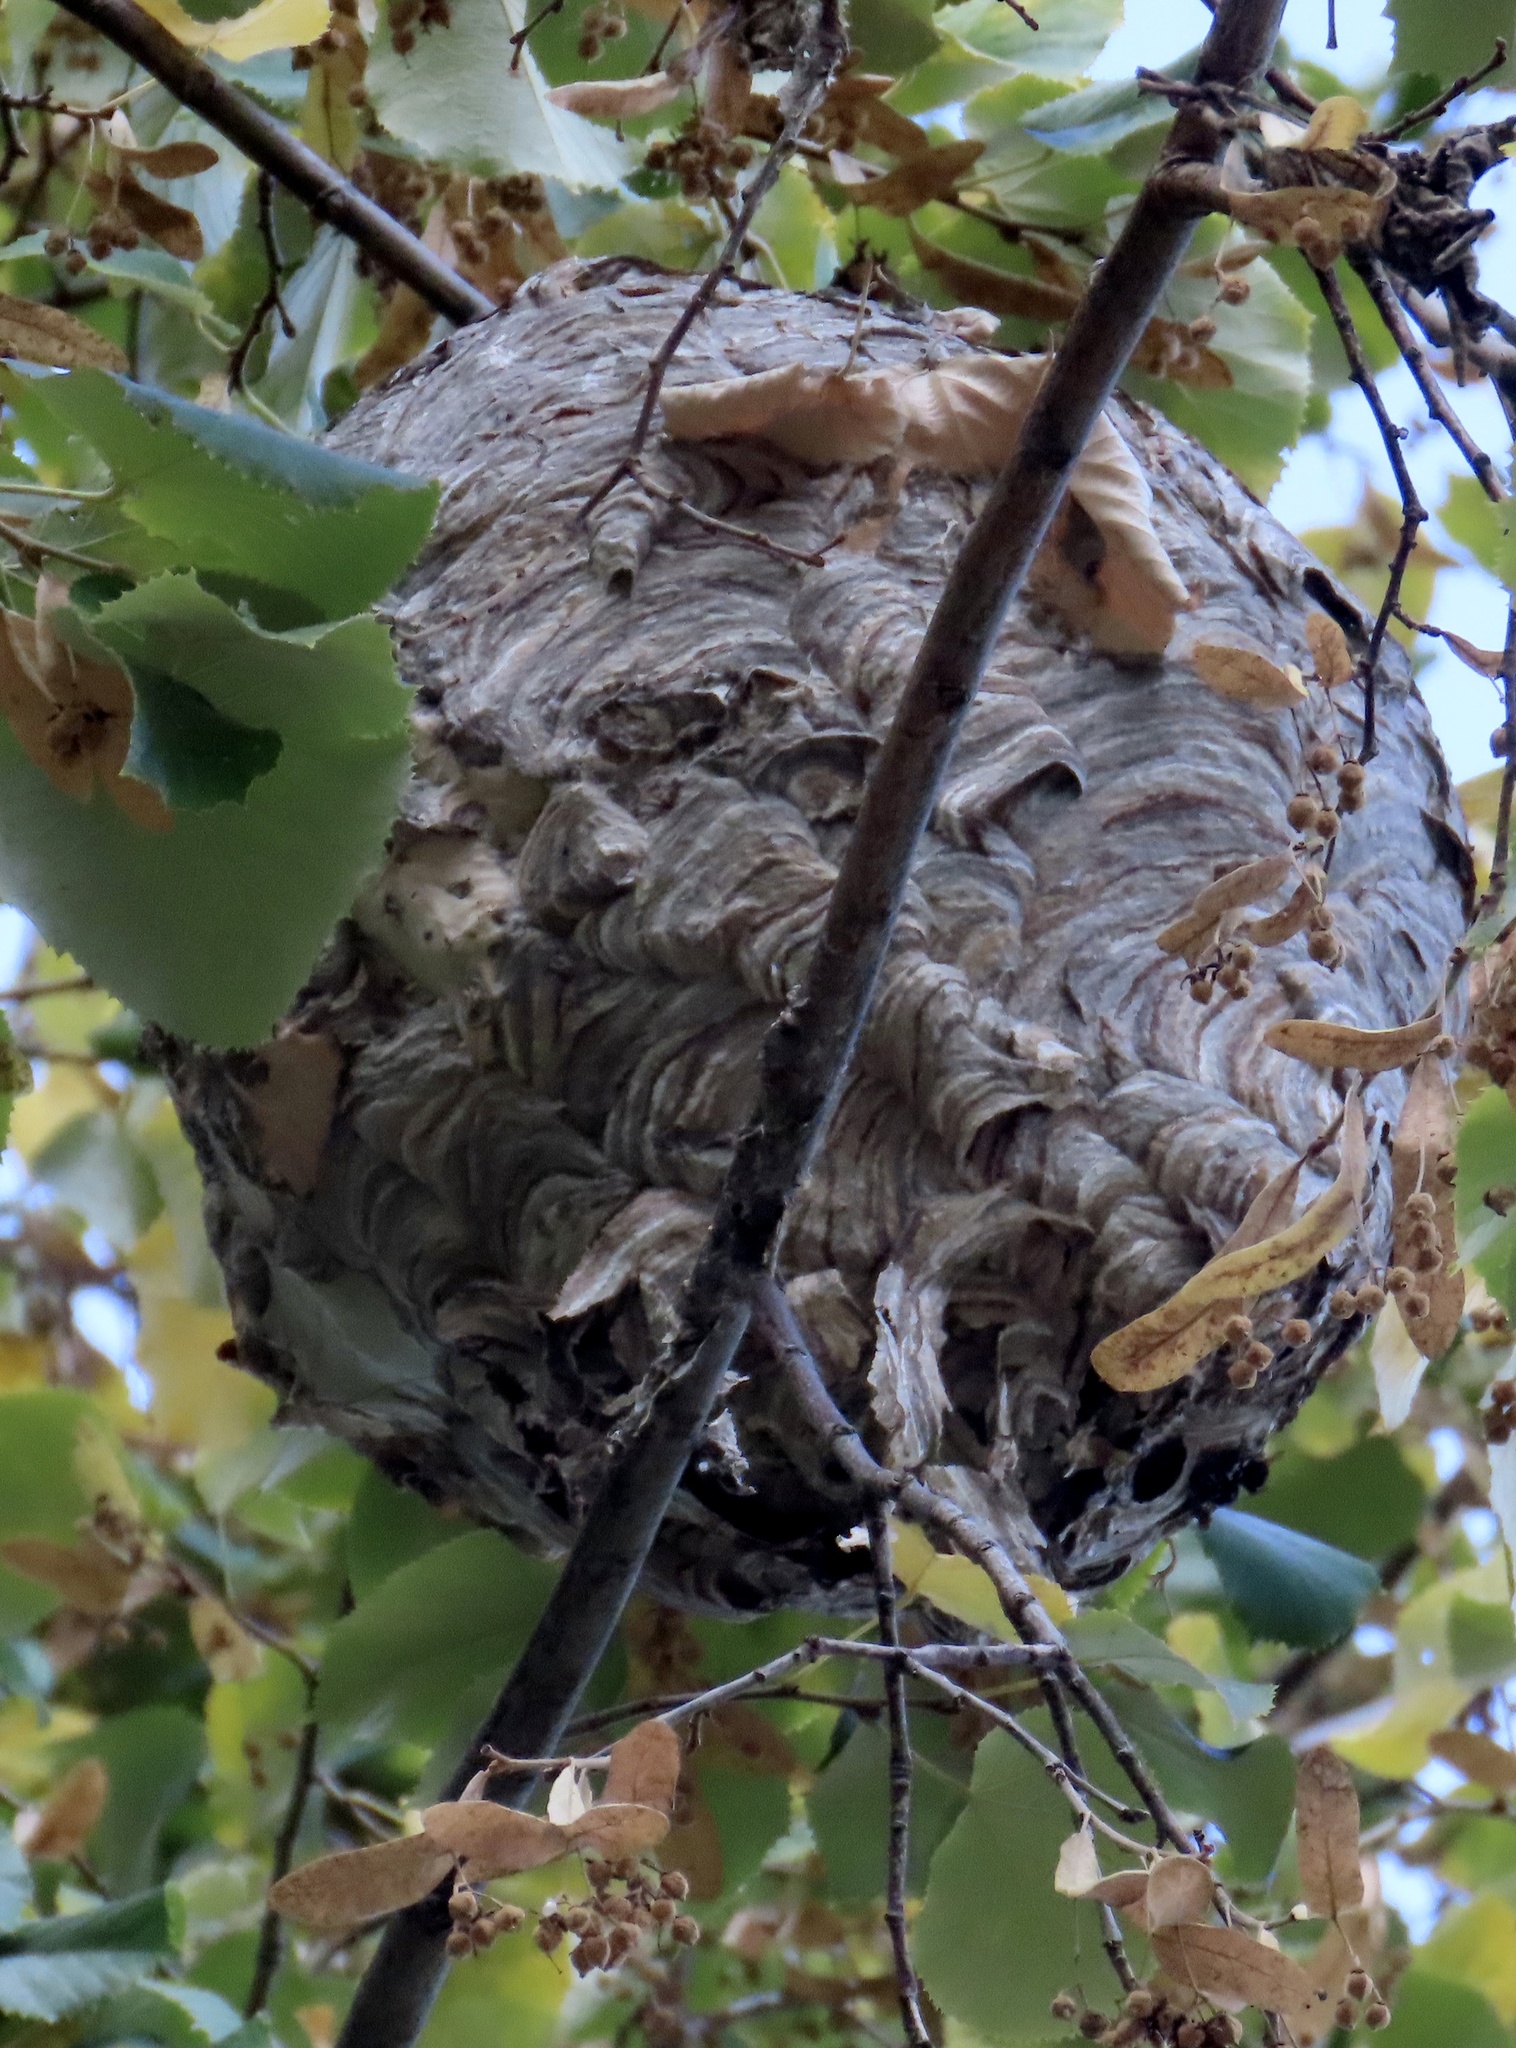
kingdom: Animalia
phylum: Arthropoda
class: Insecta
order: Hymenoptera
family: Vespidae
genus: Dolichovespula
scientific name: Dolichovespula maculata
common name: Bald-faced hornet
